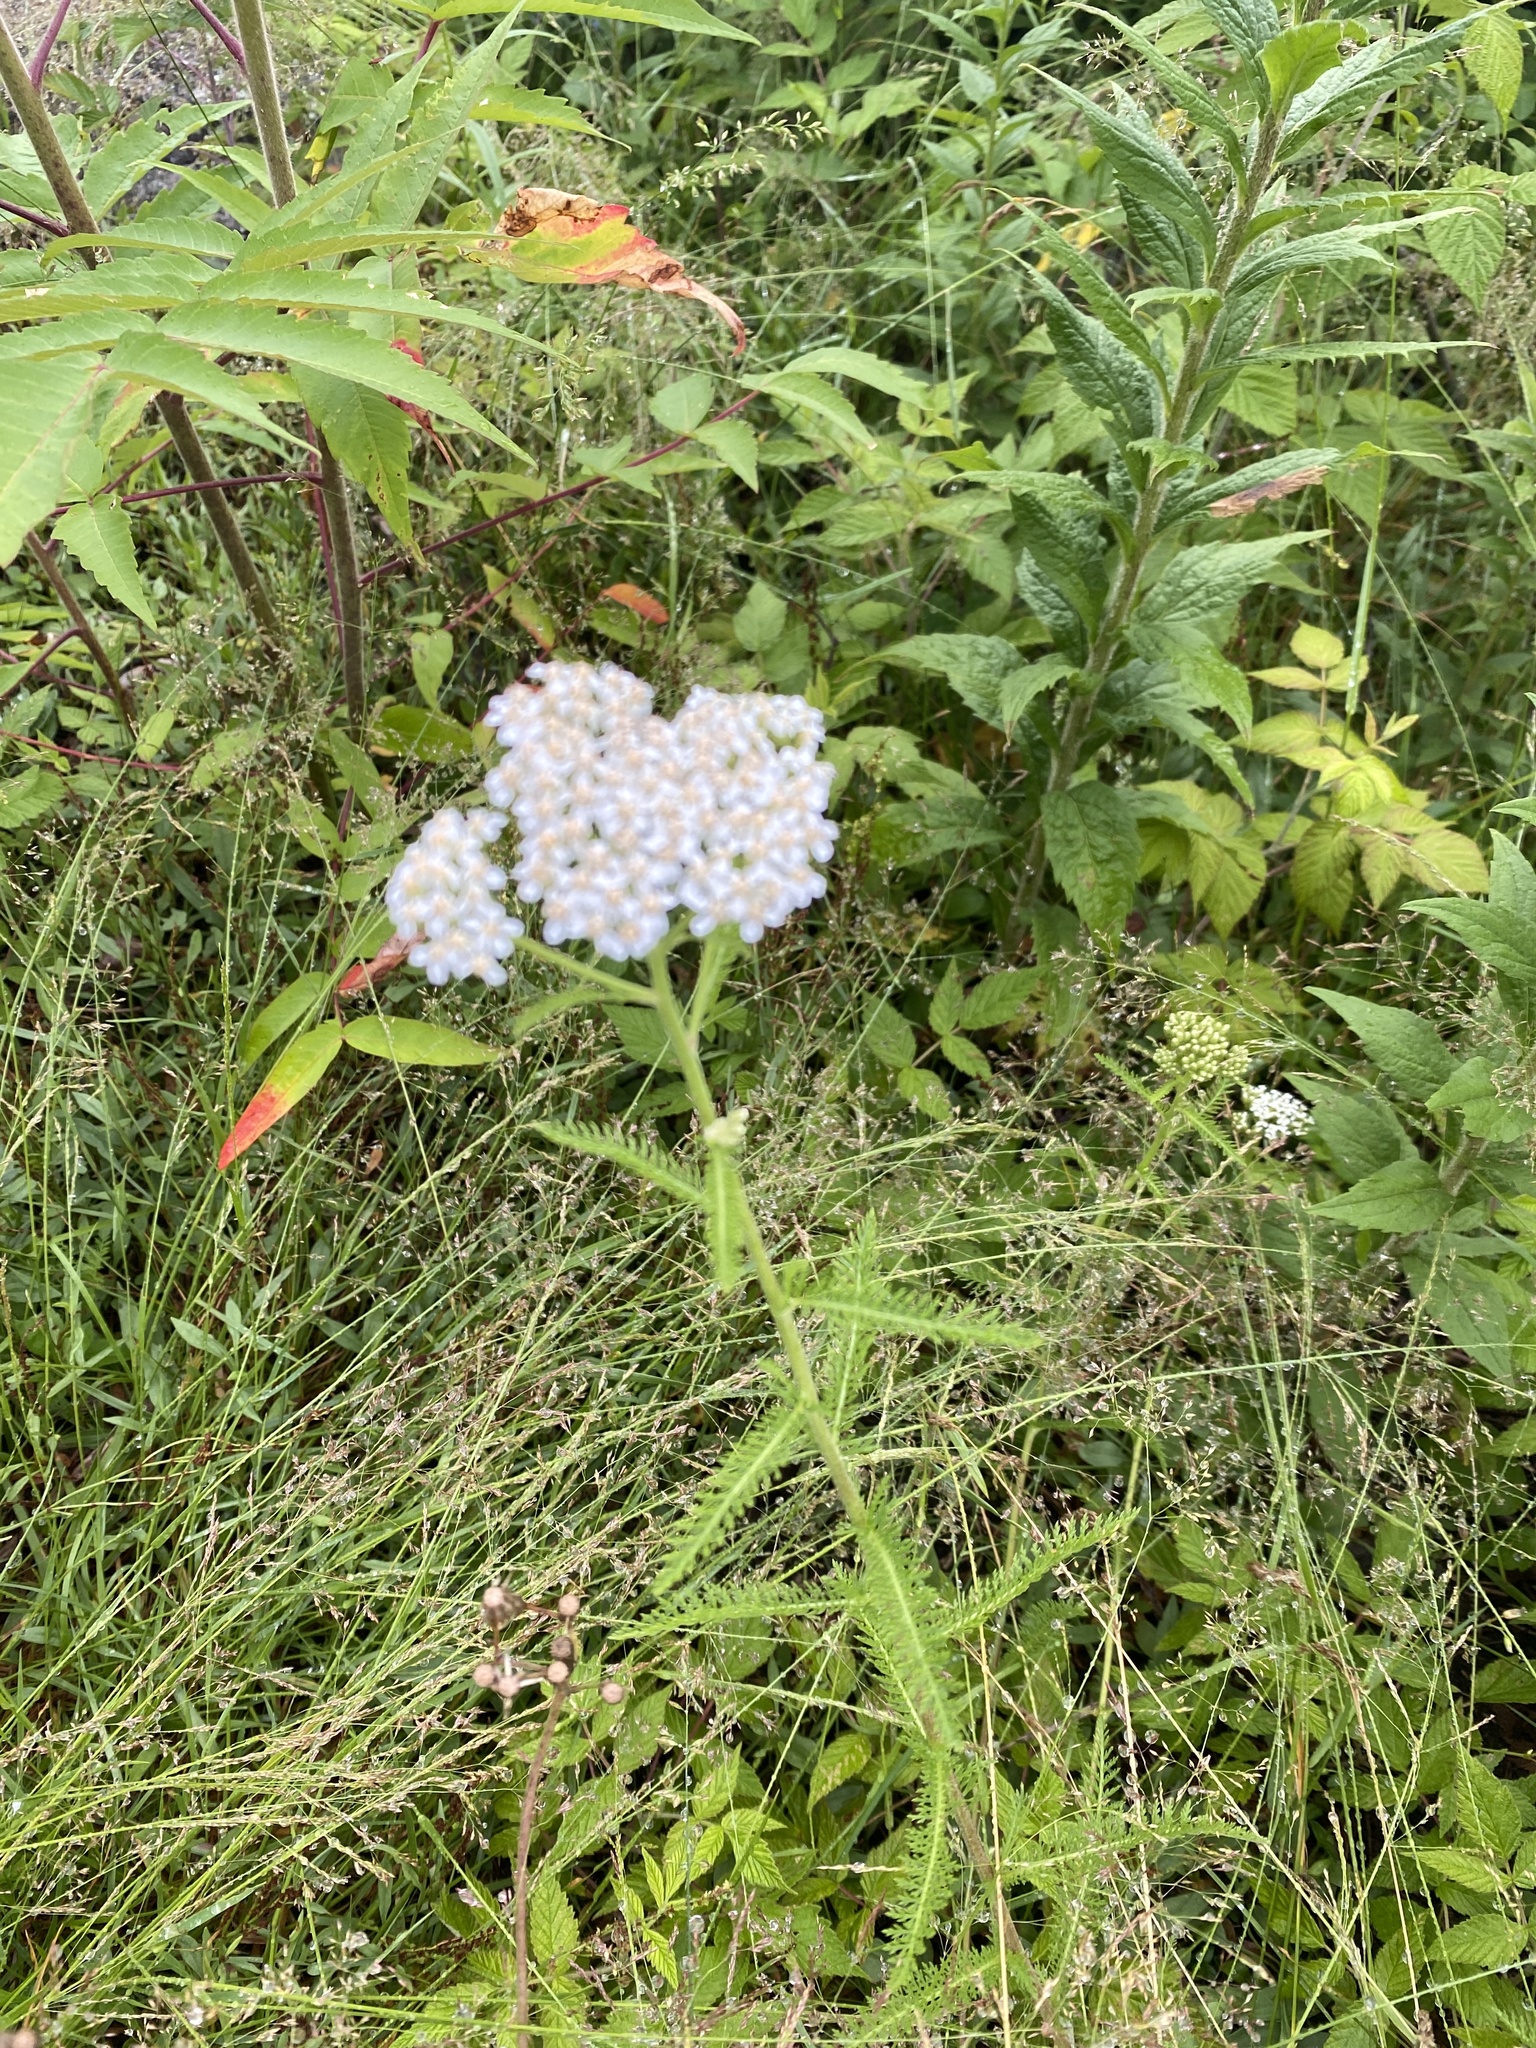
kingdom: Plantae
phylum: Tracheophyta
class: Magnoliopsida
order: Asterales
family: Asteraceae
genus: Achillea
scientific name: Achillea millefolium
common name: Yarrow
